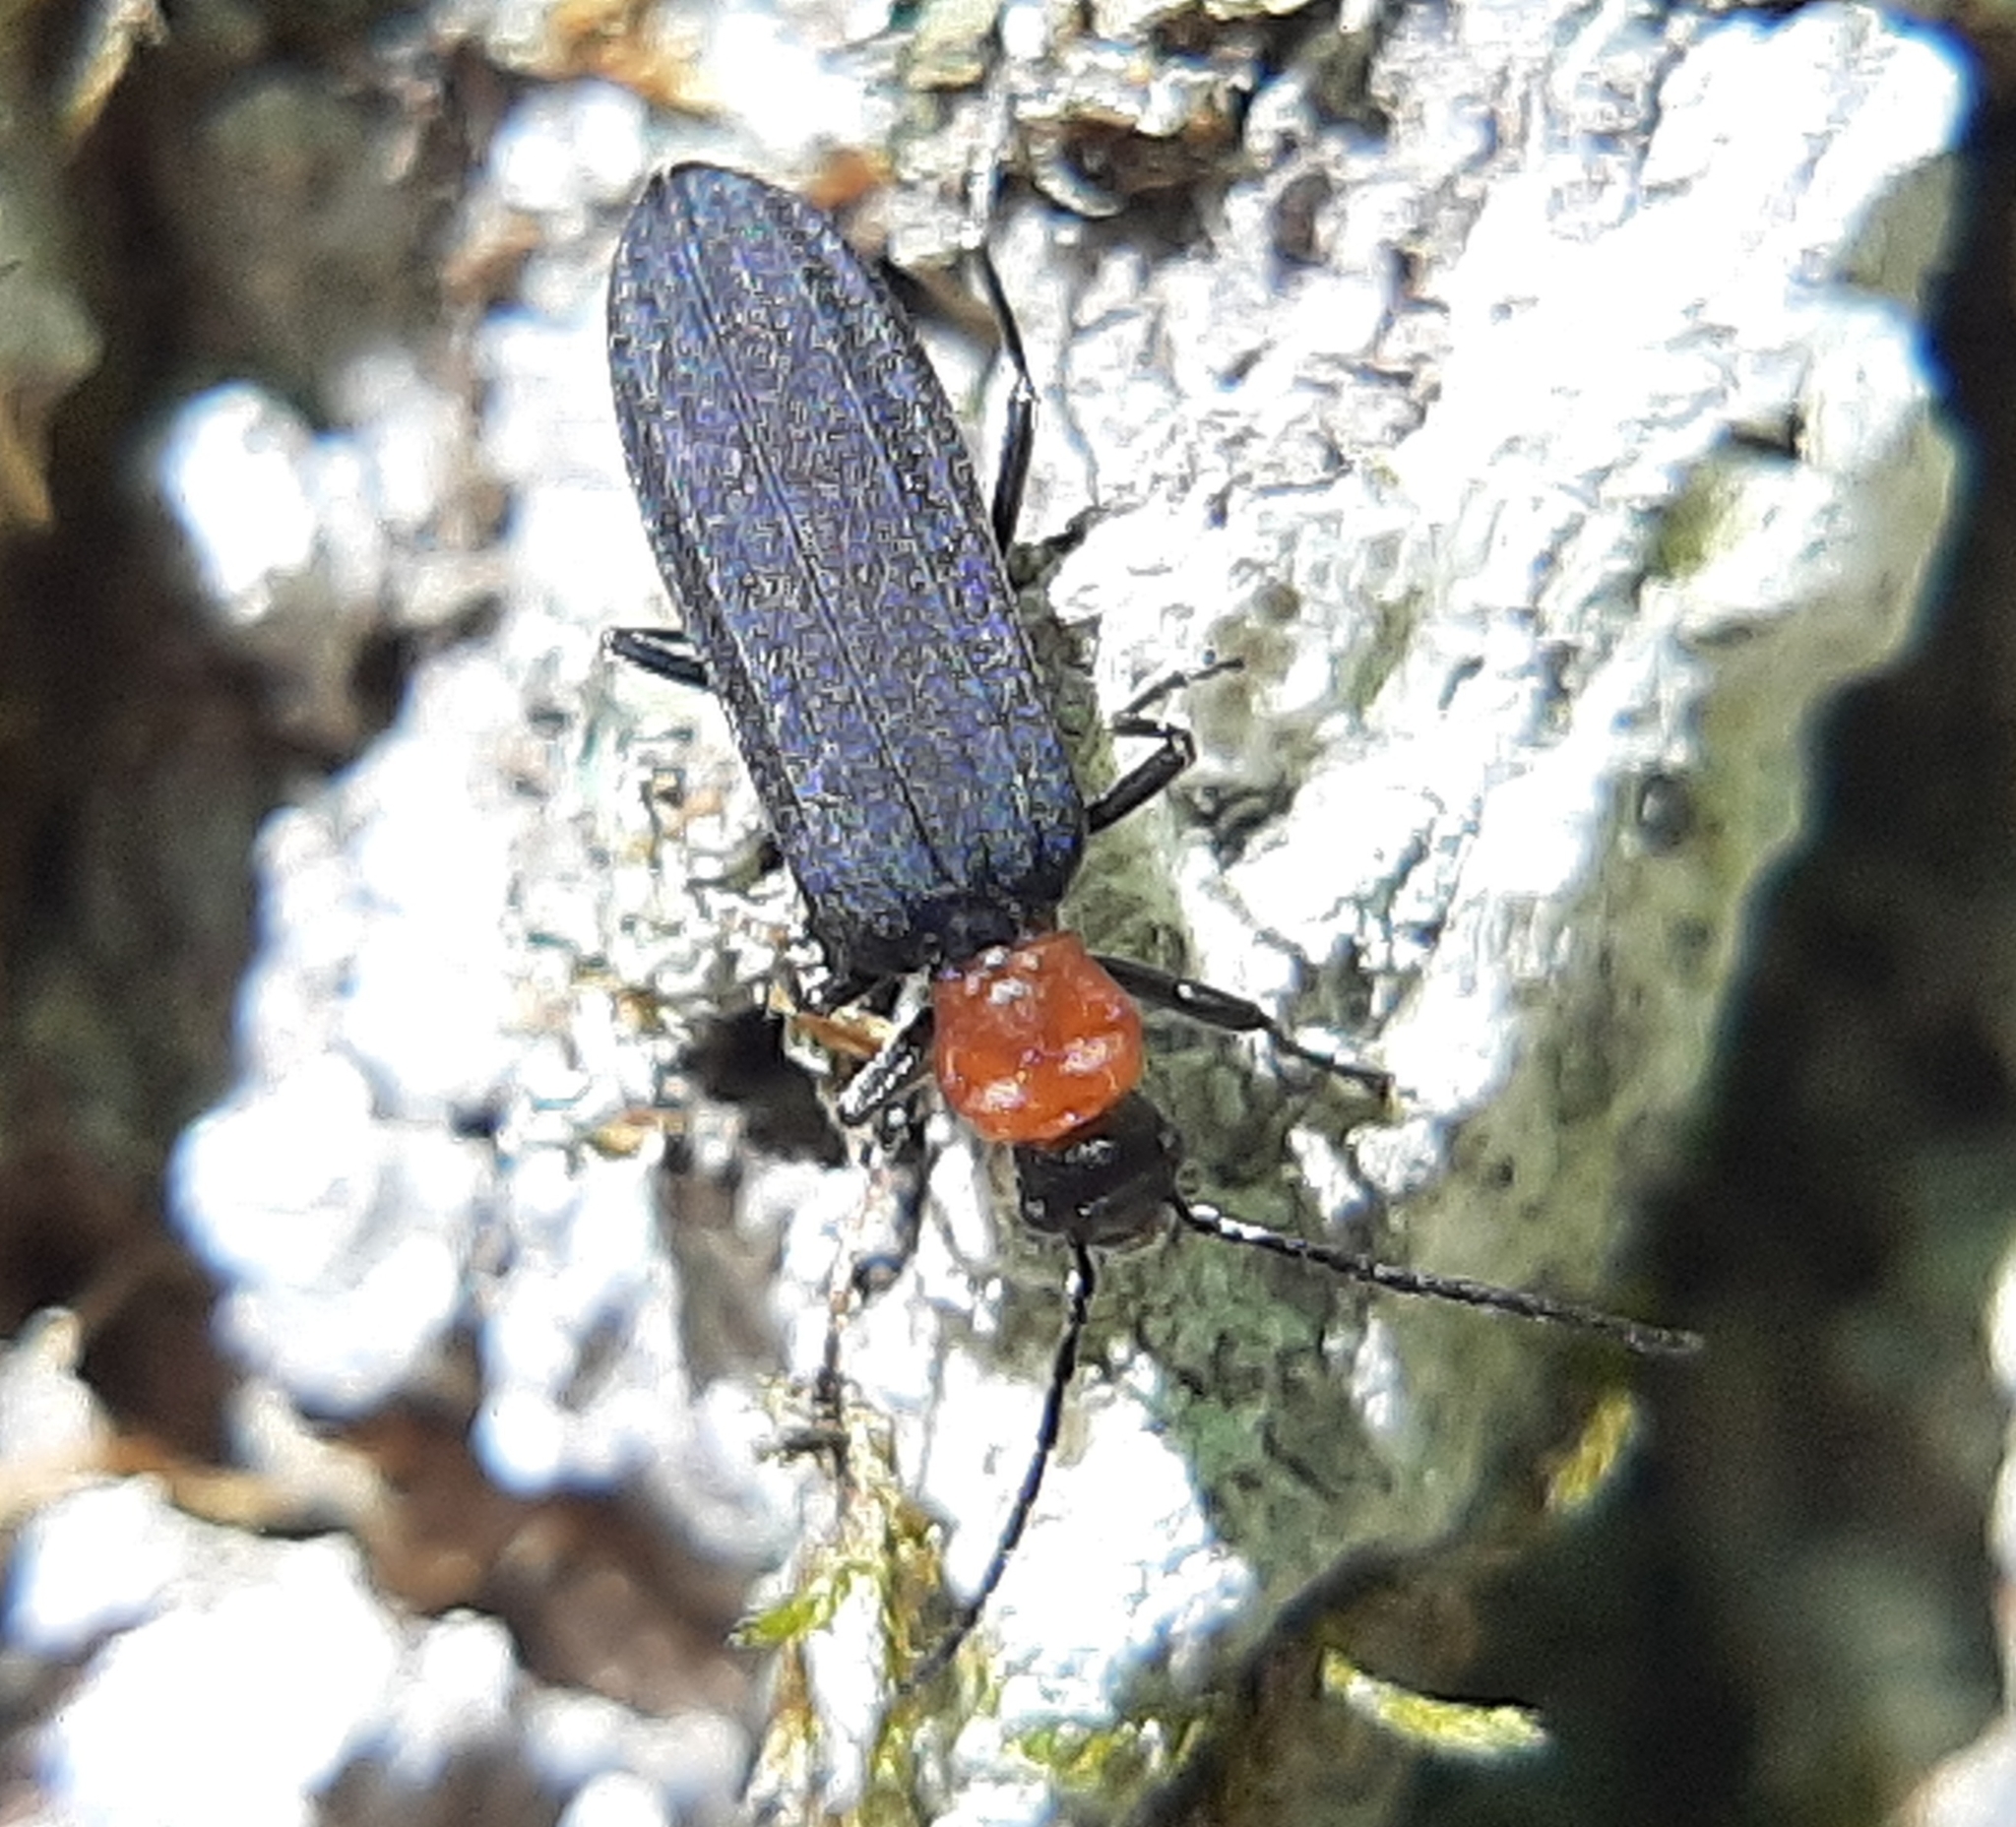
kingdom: Animalia
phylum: Arthropoda
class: Insecta
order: Coleoptera
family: Oedemeridae
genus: Ischnomera
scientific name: Ischnomera
